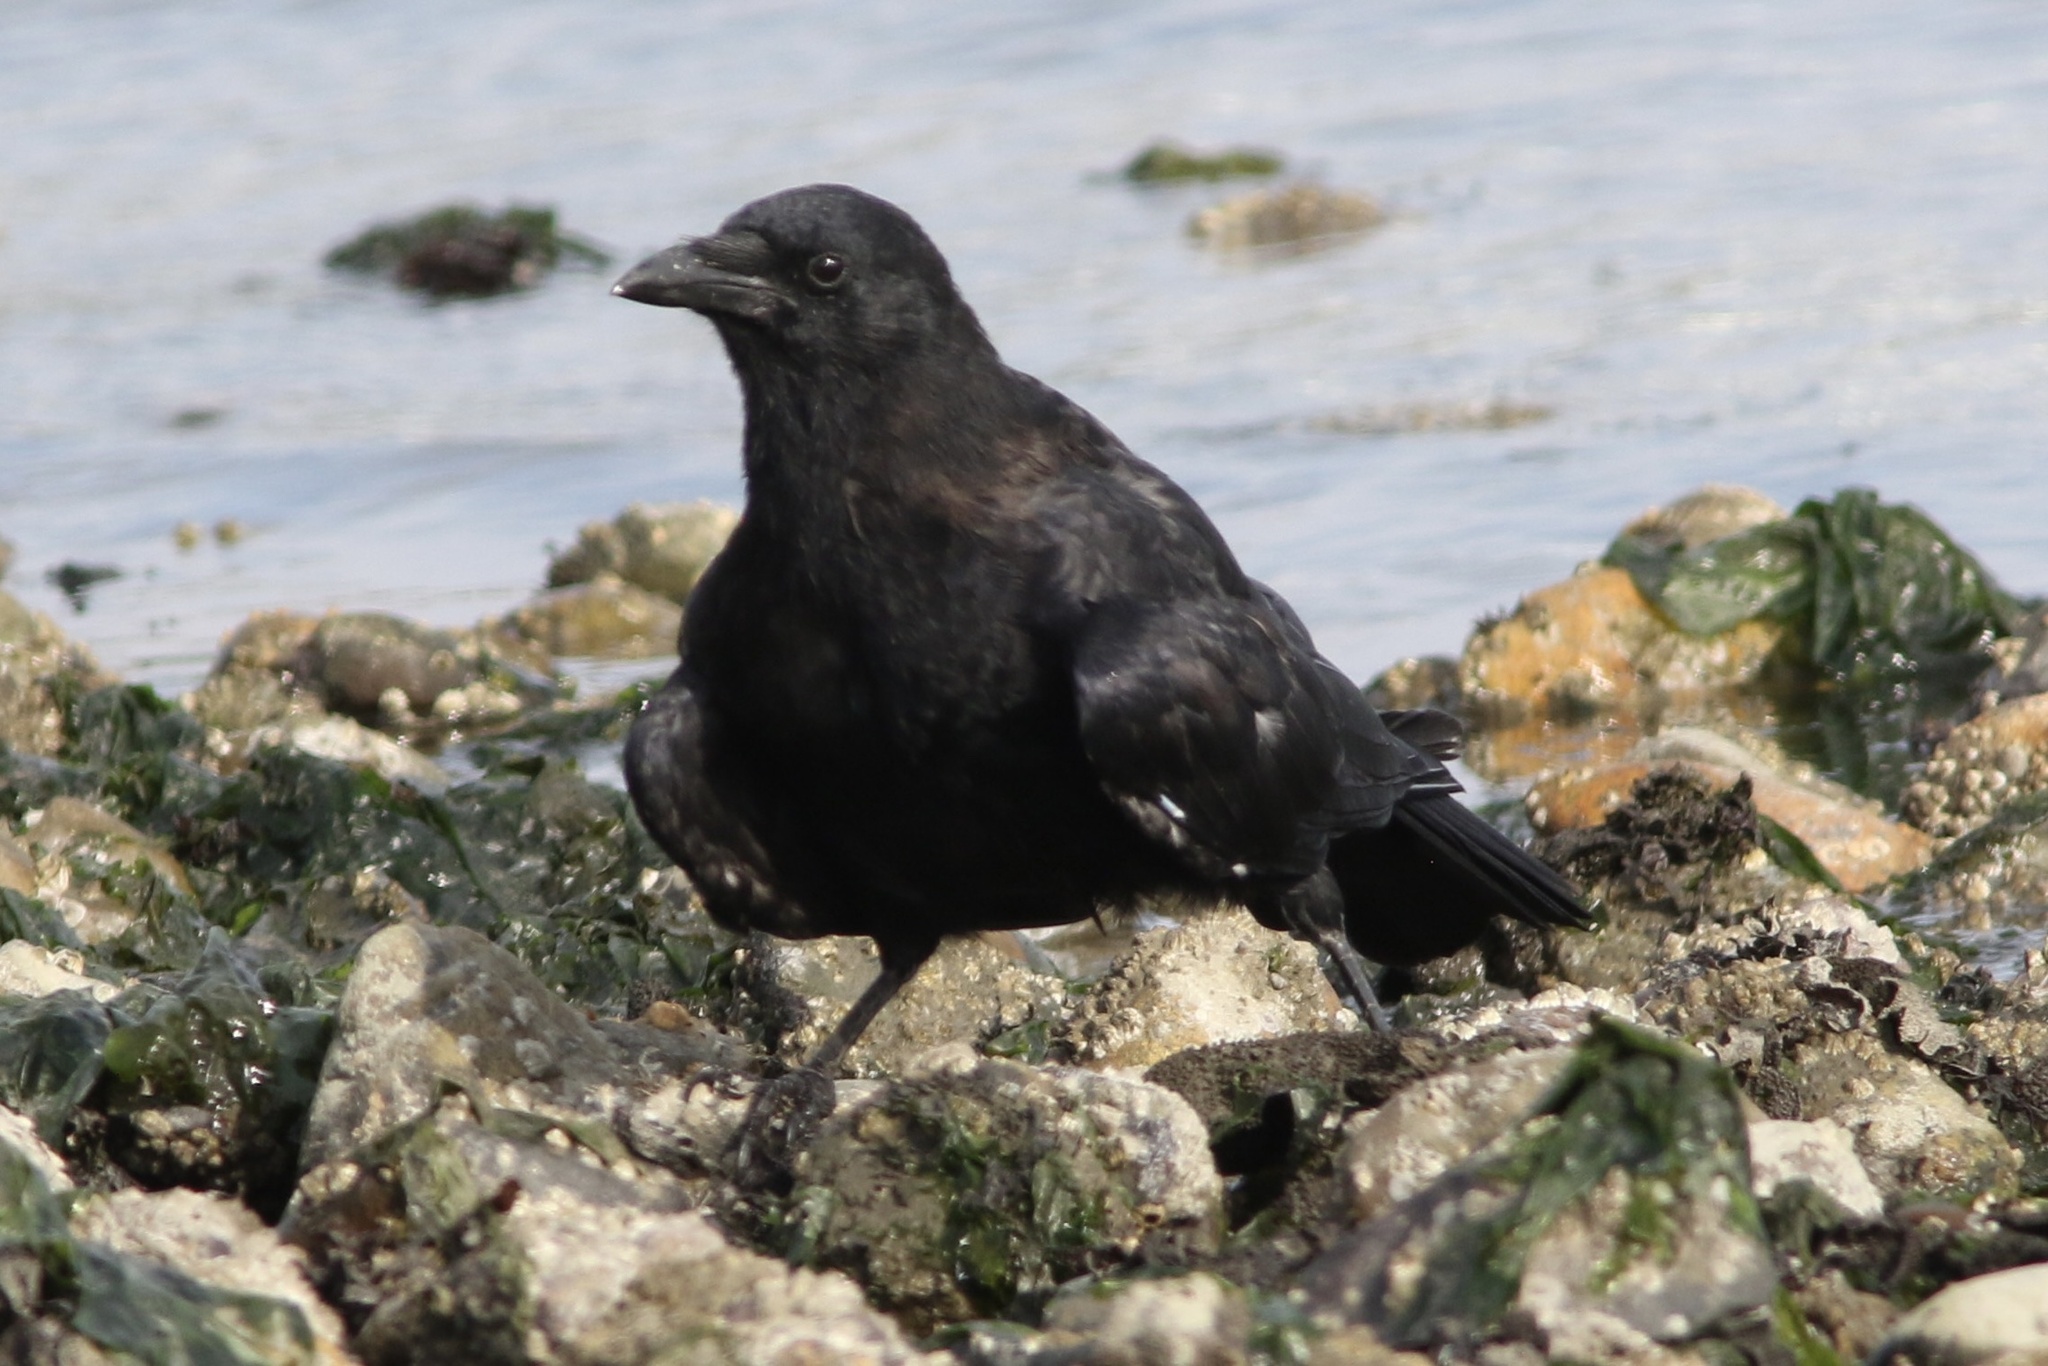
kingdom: Animalia
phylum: Chordata
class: Aves
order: Passeriformes
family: Corvidae
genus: Corvus
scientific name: Corvus brachyrhynchos
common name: American crow
